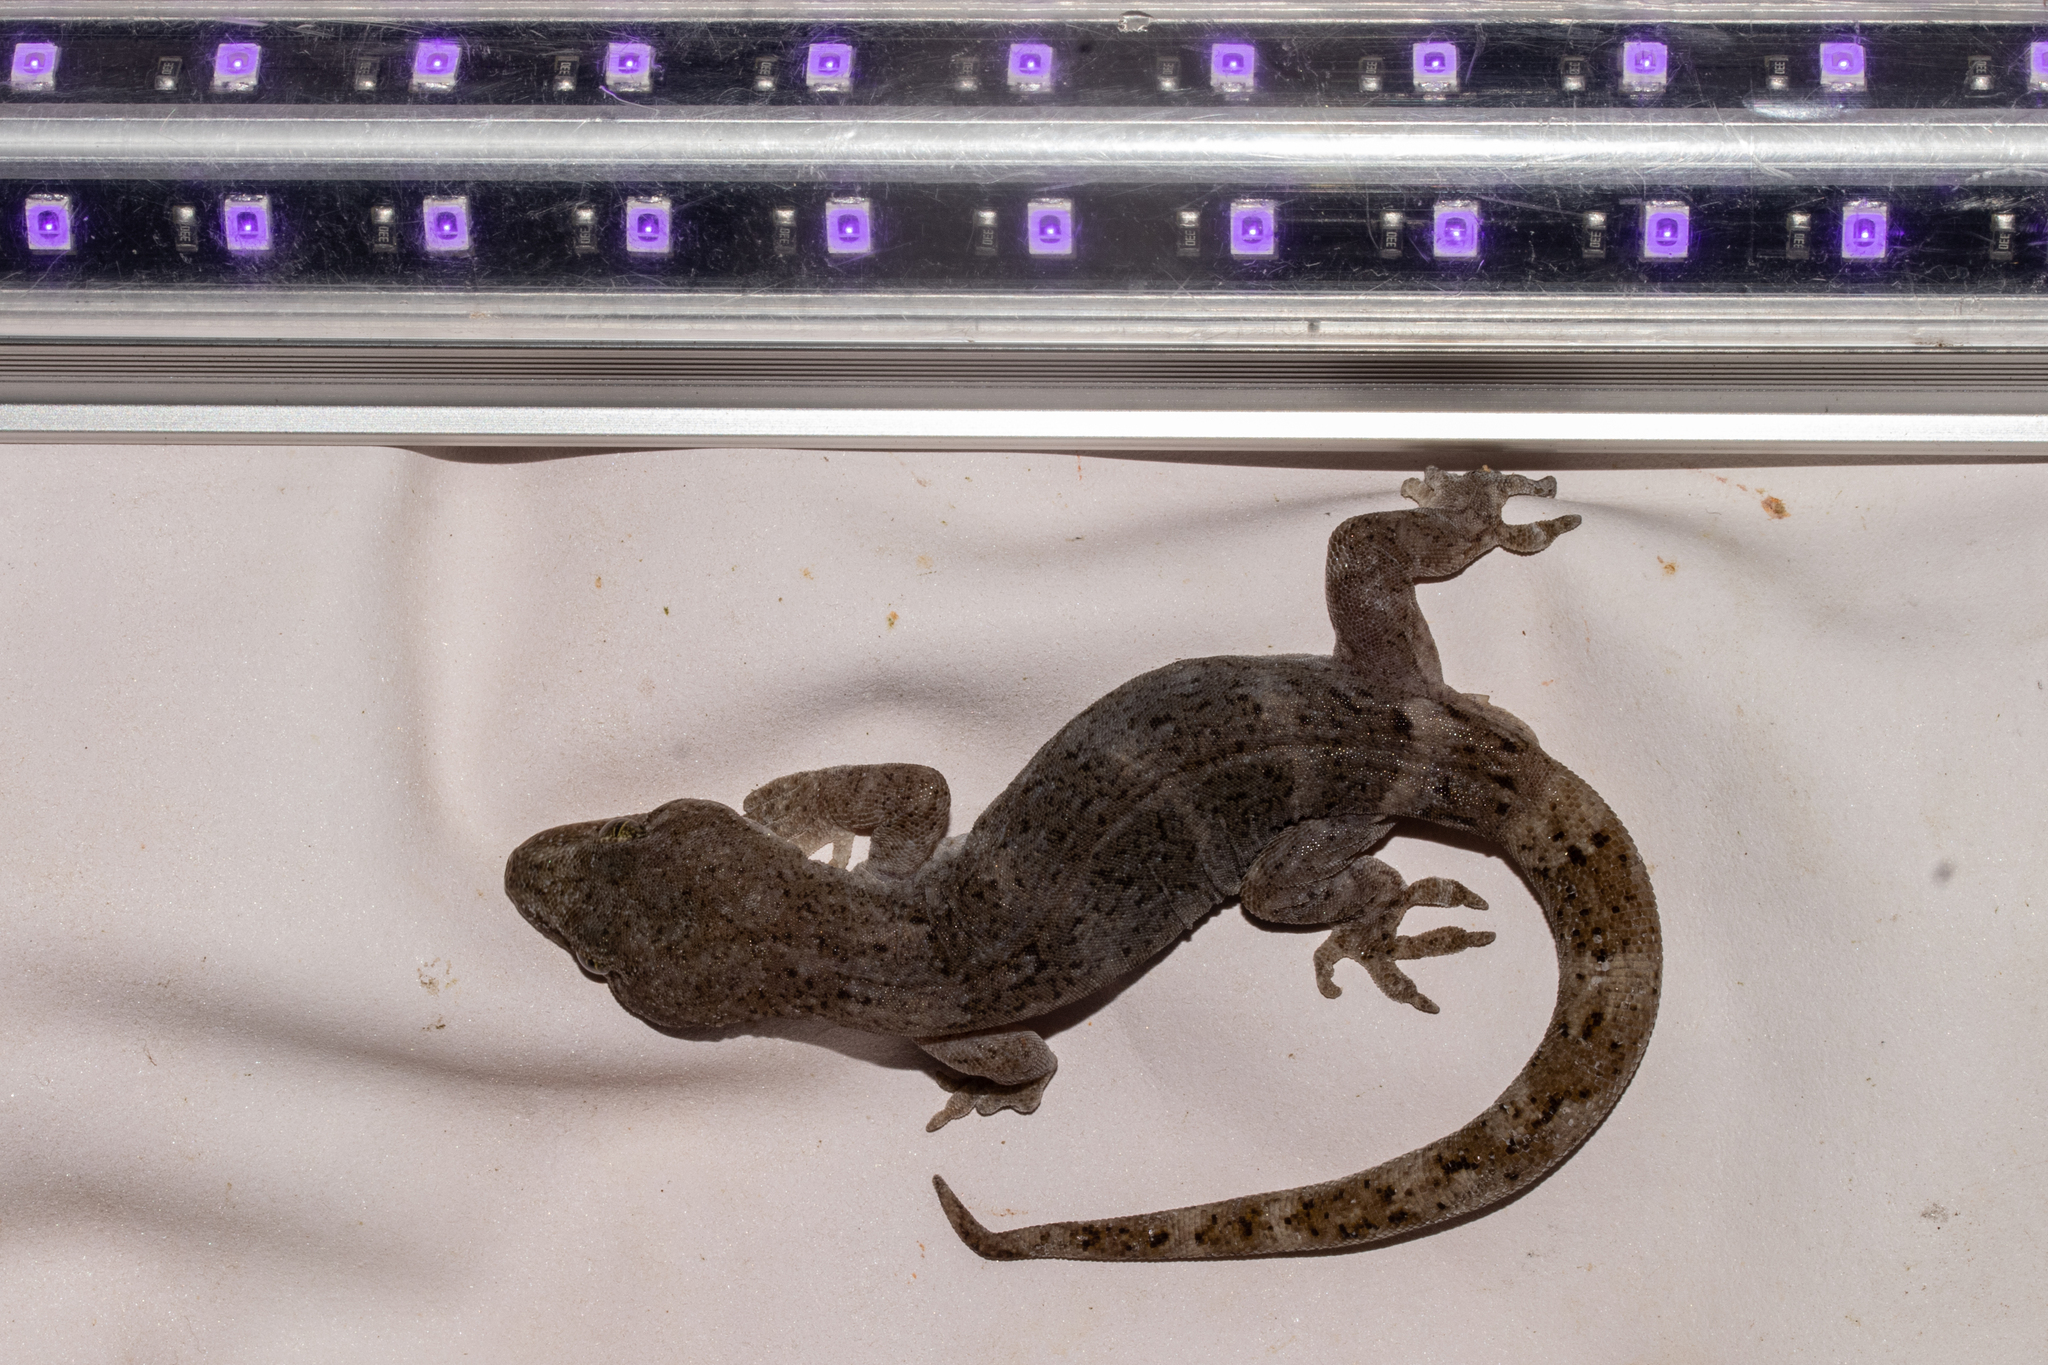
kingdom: Animalia
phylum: Chordata
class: Squamata
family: Diplodactylidae
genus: Woodworthia
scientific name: Woodworthia
